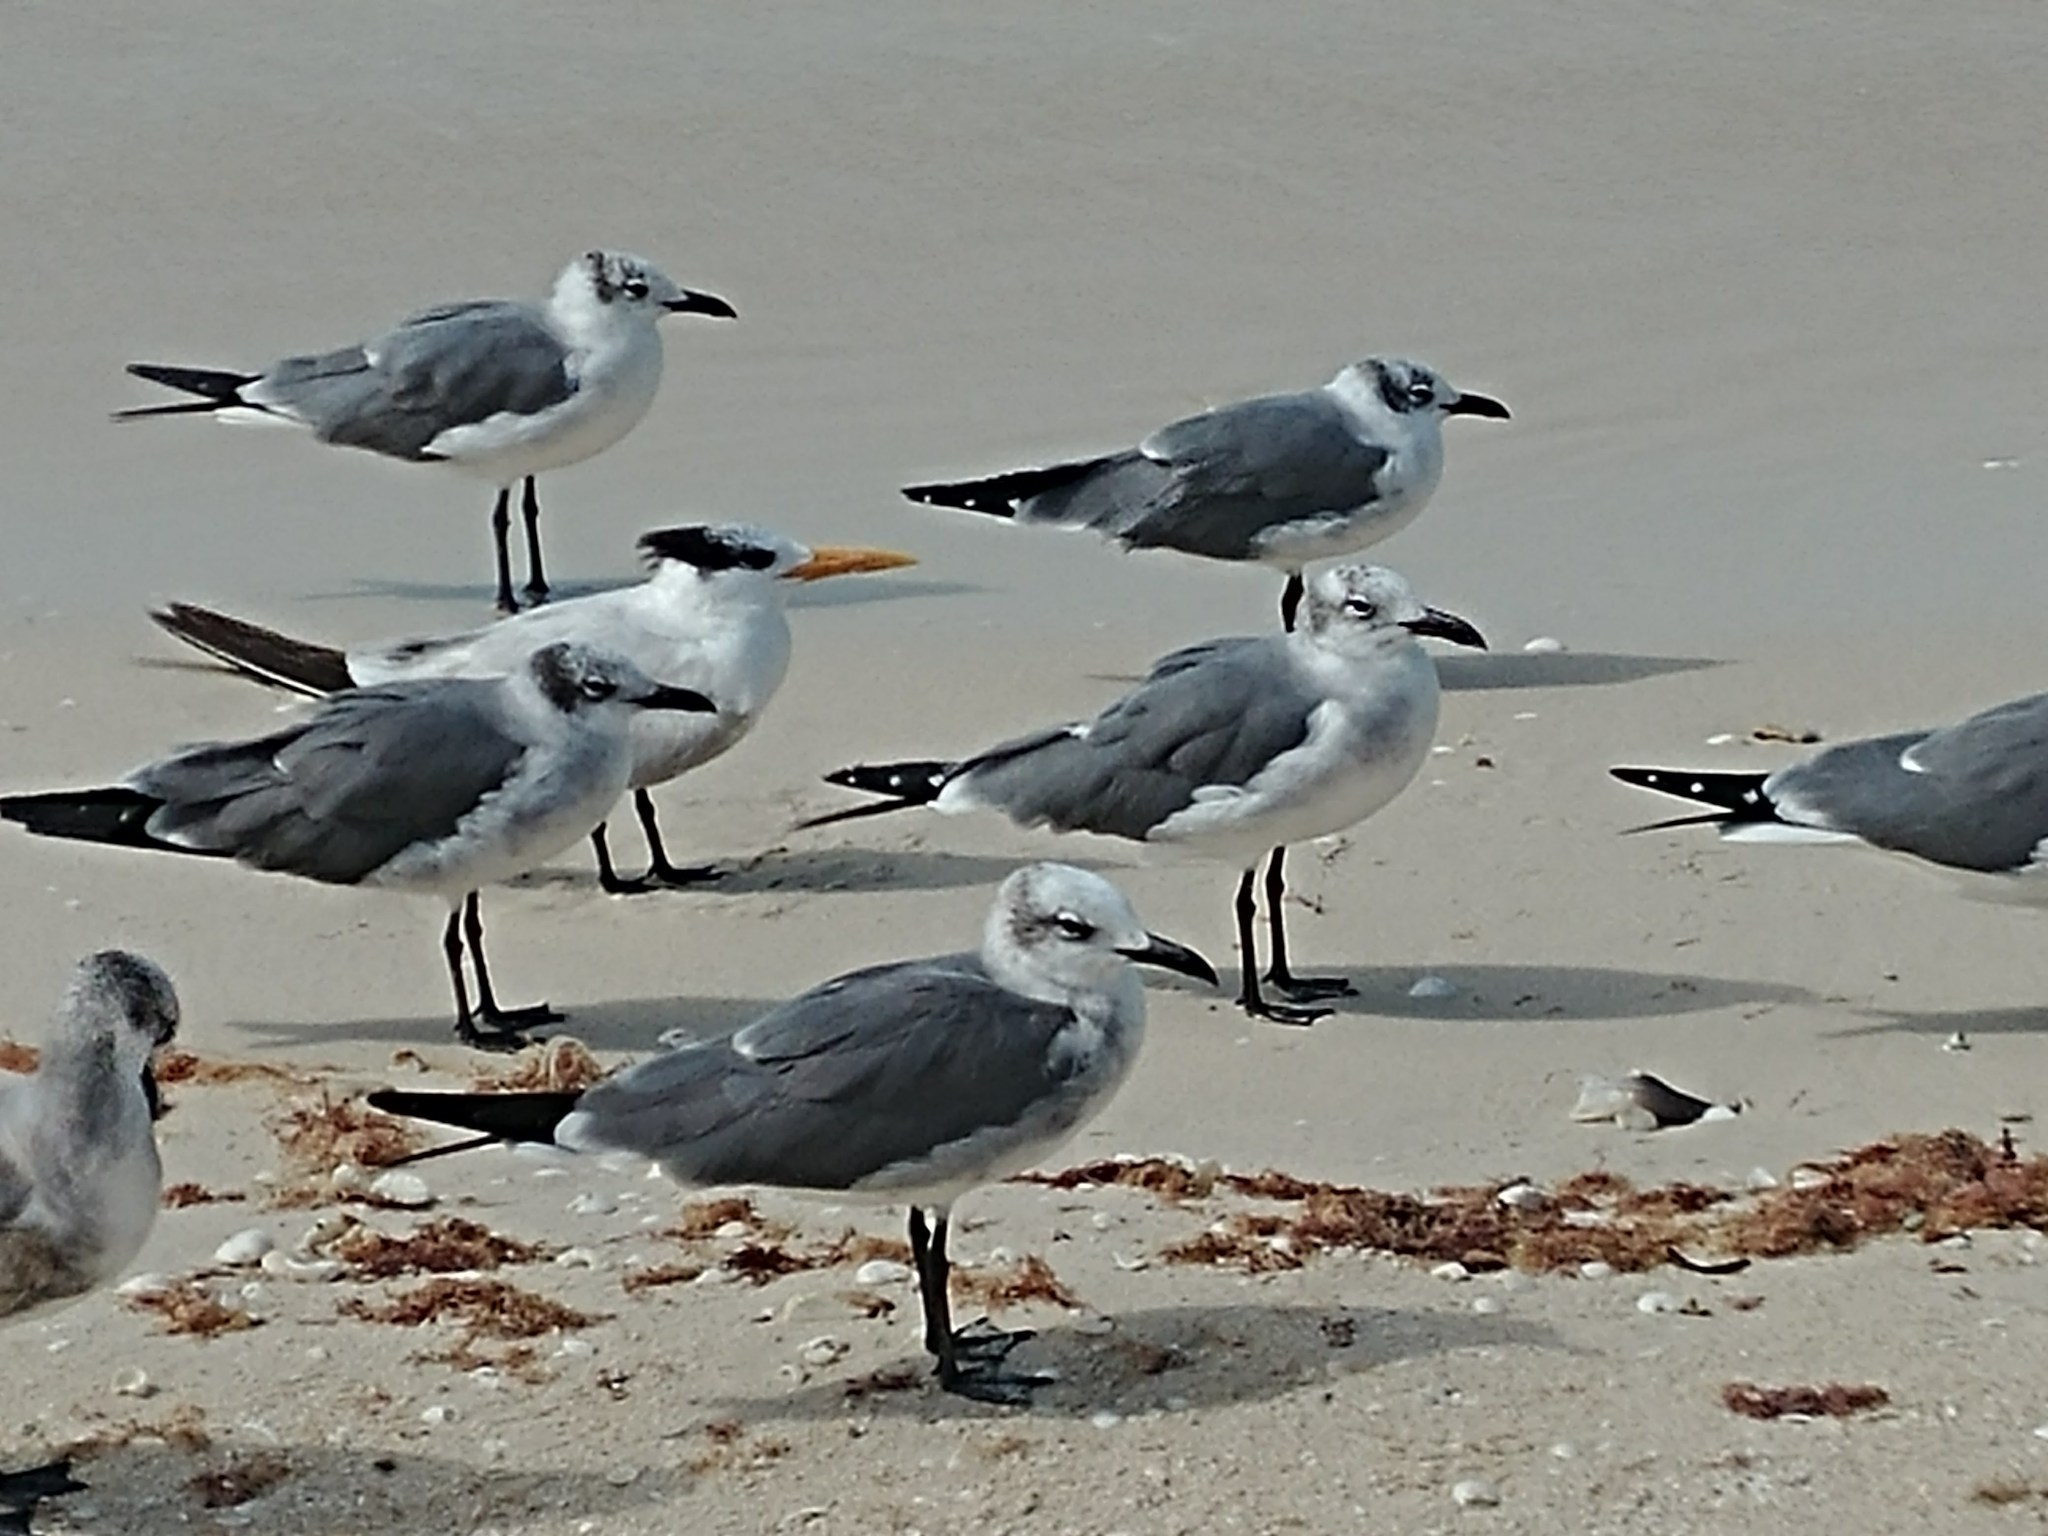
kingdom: Animalia
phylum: Chordata
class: Aves
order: Charadriiformes
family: Laridae
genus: Leucophaeus
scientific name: Leucophaeus atricilla
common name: Laughing gull
